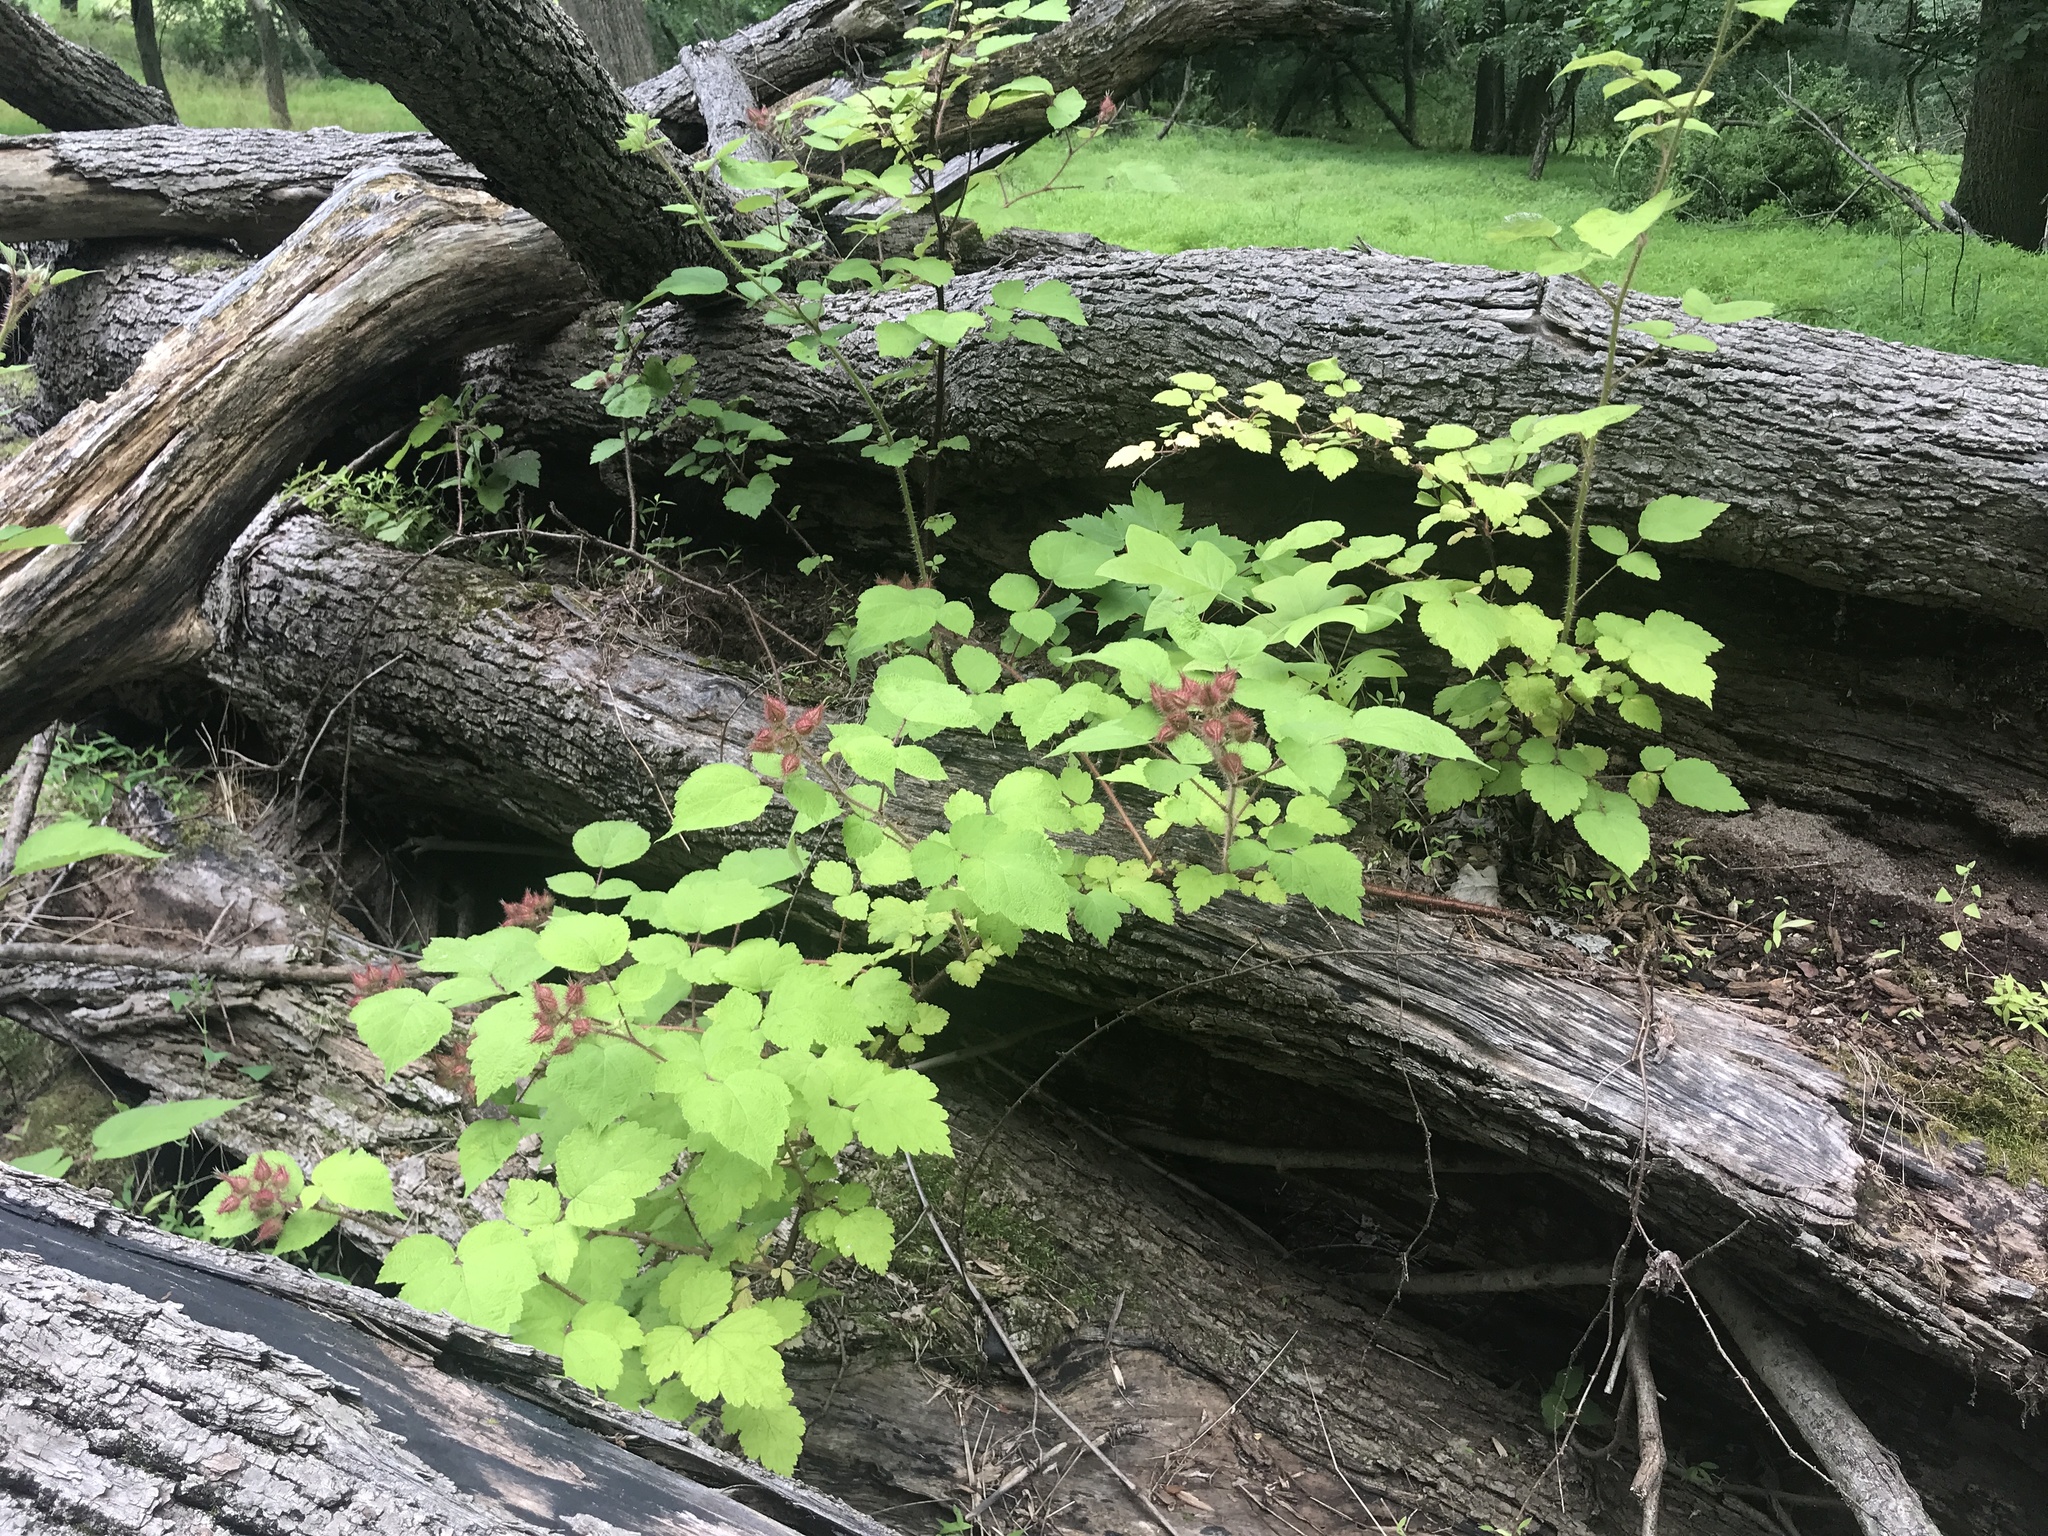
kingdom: Plantae
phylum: Tracheophyta
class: Magnoliopsida
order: Rosales
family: Rosaceae
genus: Rubus
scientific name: Rubus phoenicolasius
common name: Japanese wineberry
